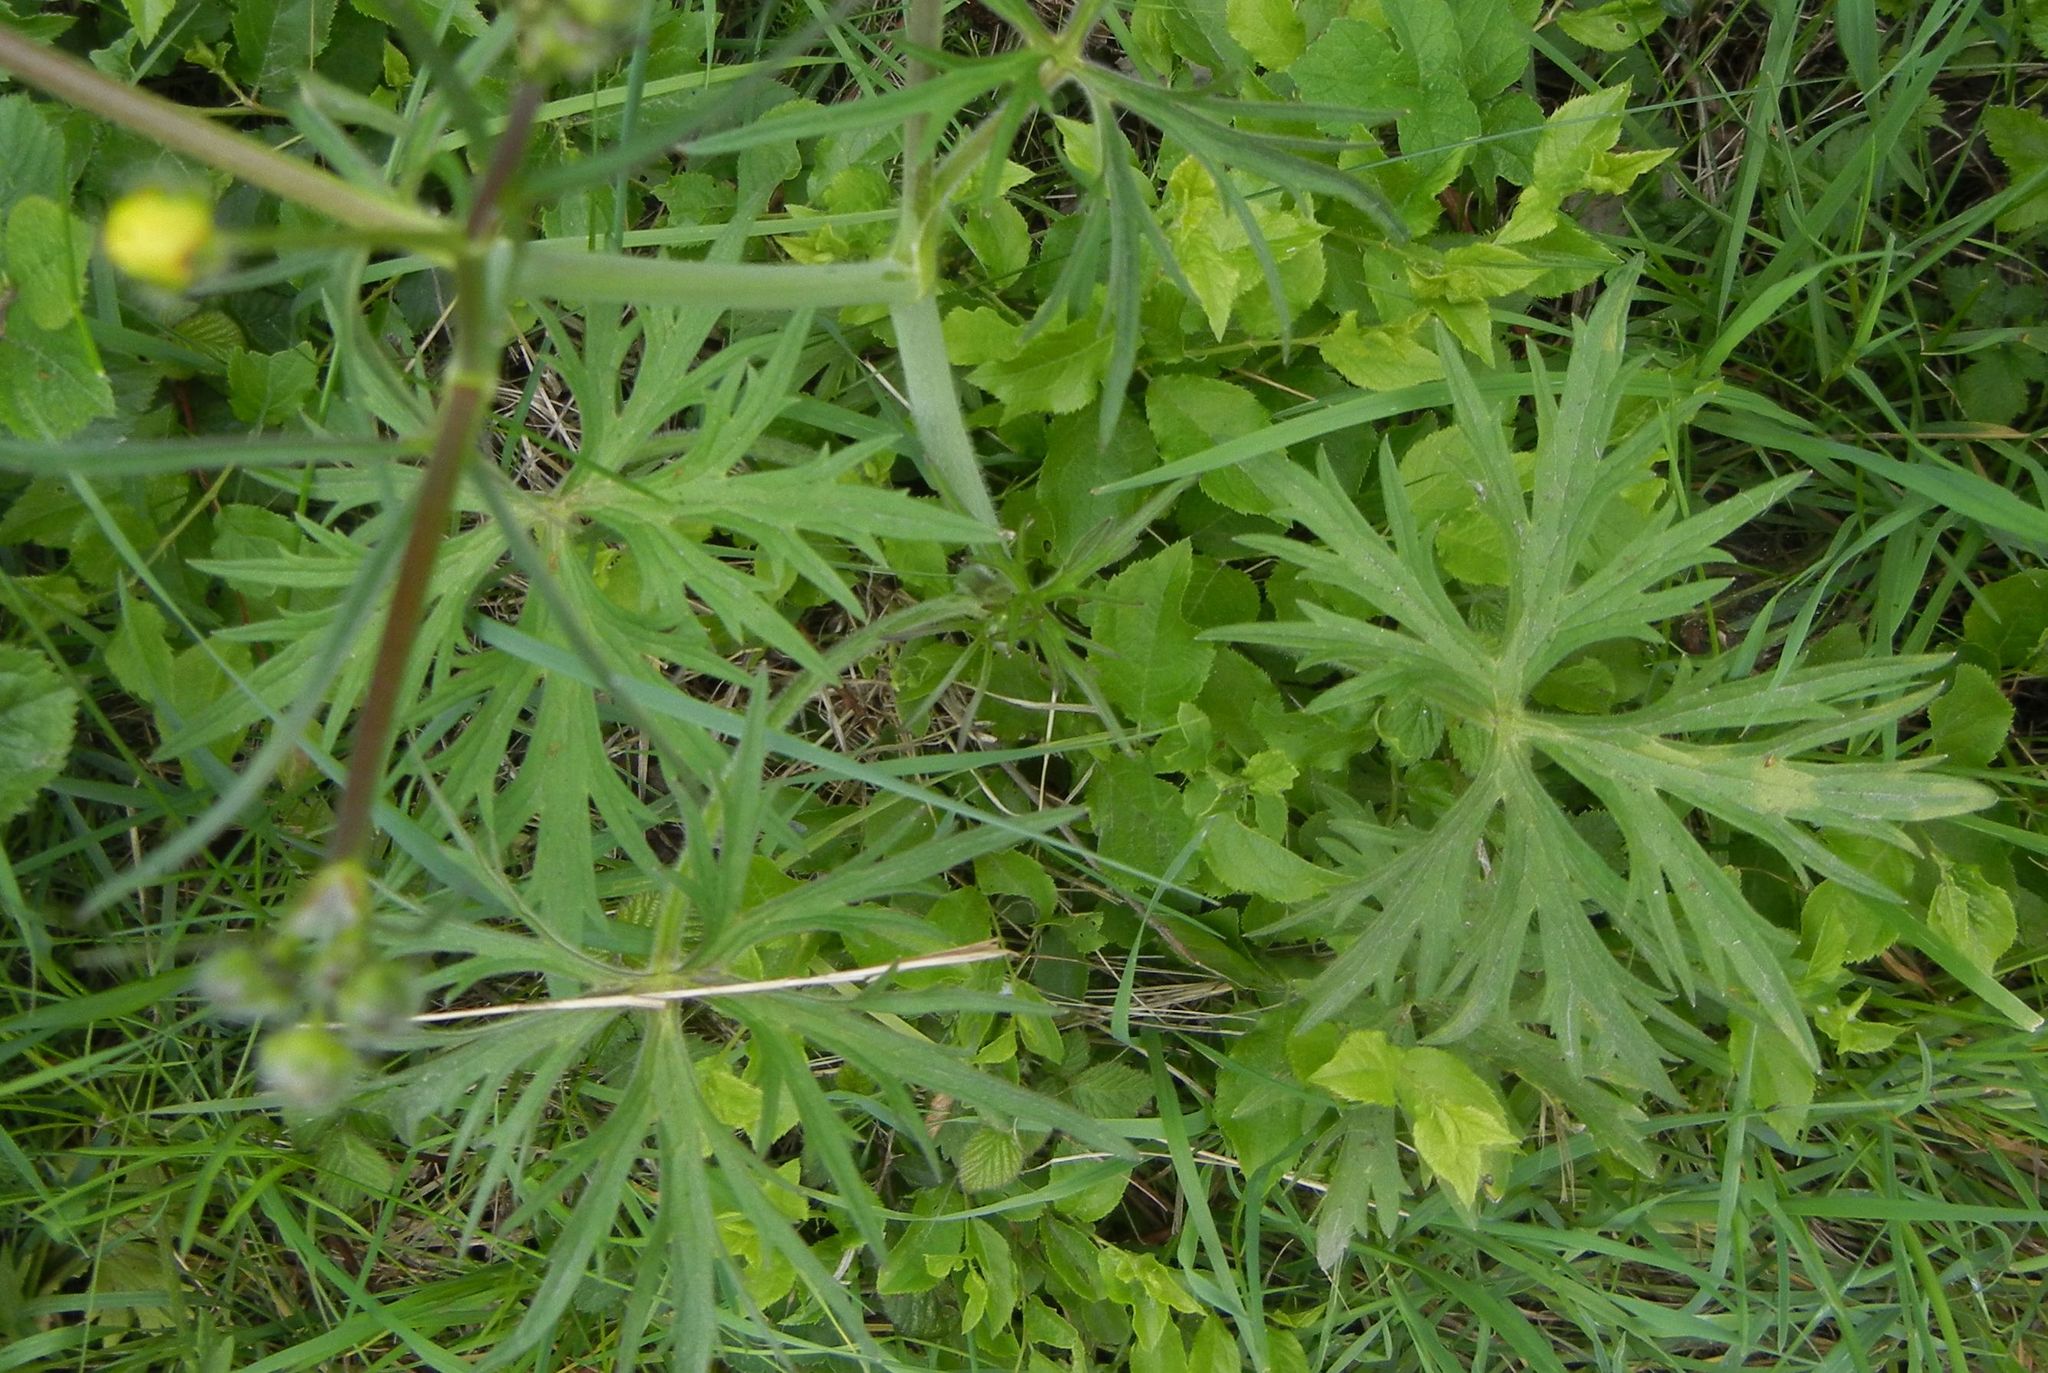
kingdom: Plantae
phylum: Tracheophyta
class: Magnoliopsida
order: Ranunculales
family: Ranunculaceae
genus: Ranunculus
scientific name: Ranunculus acris
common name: Meadow buttercup
